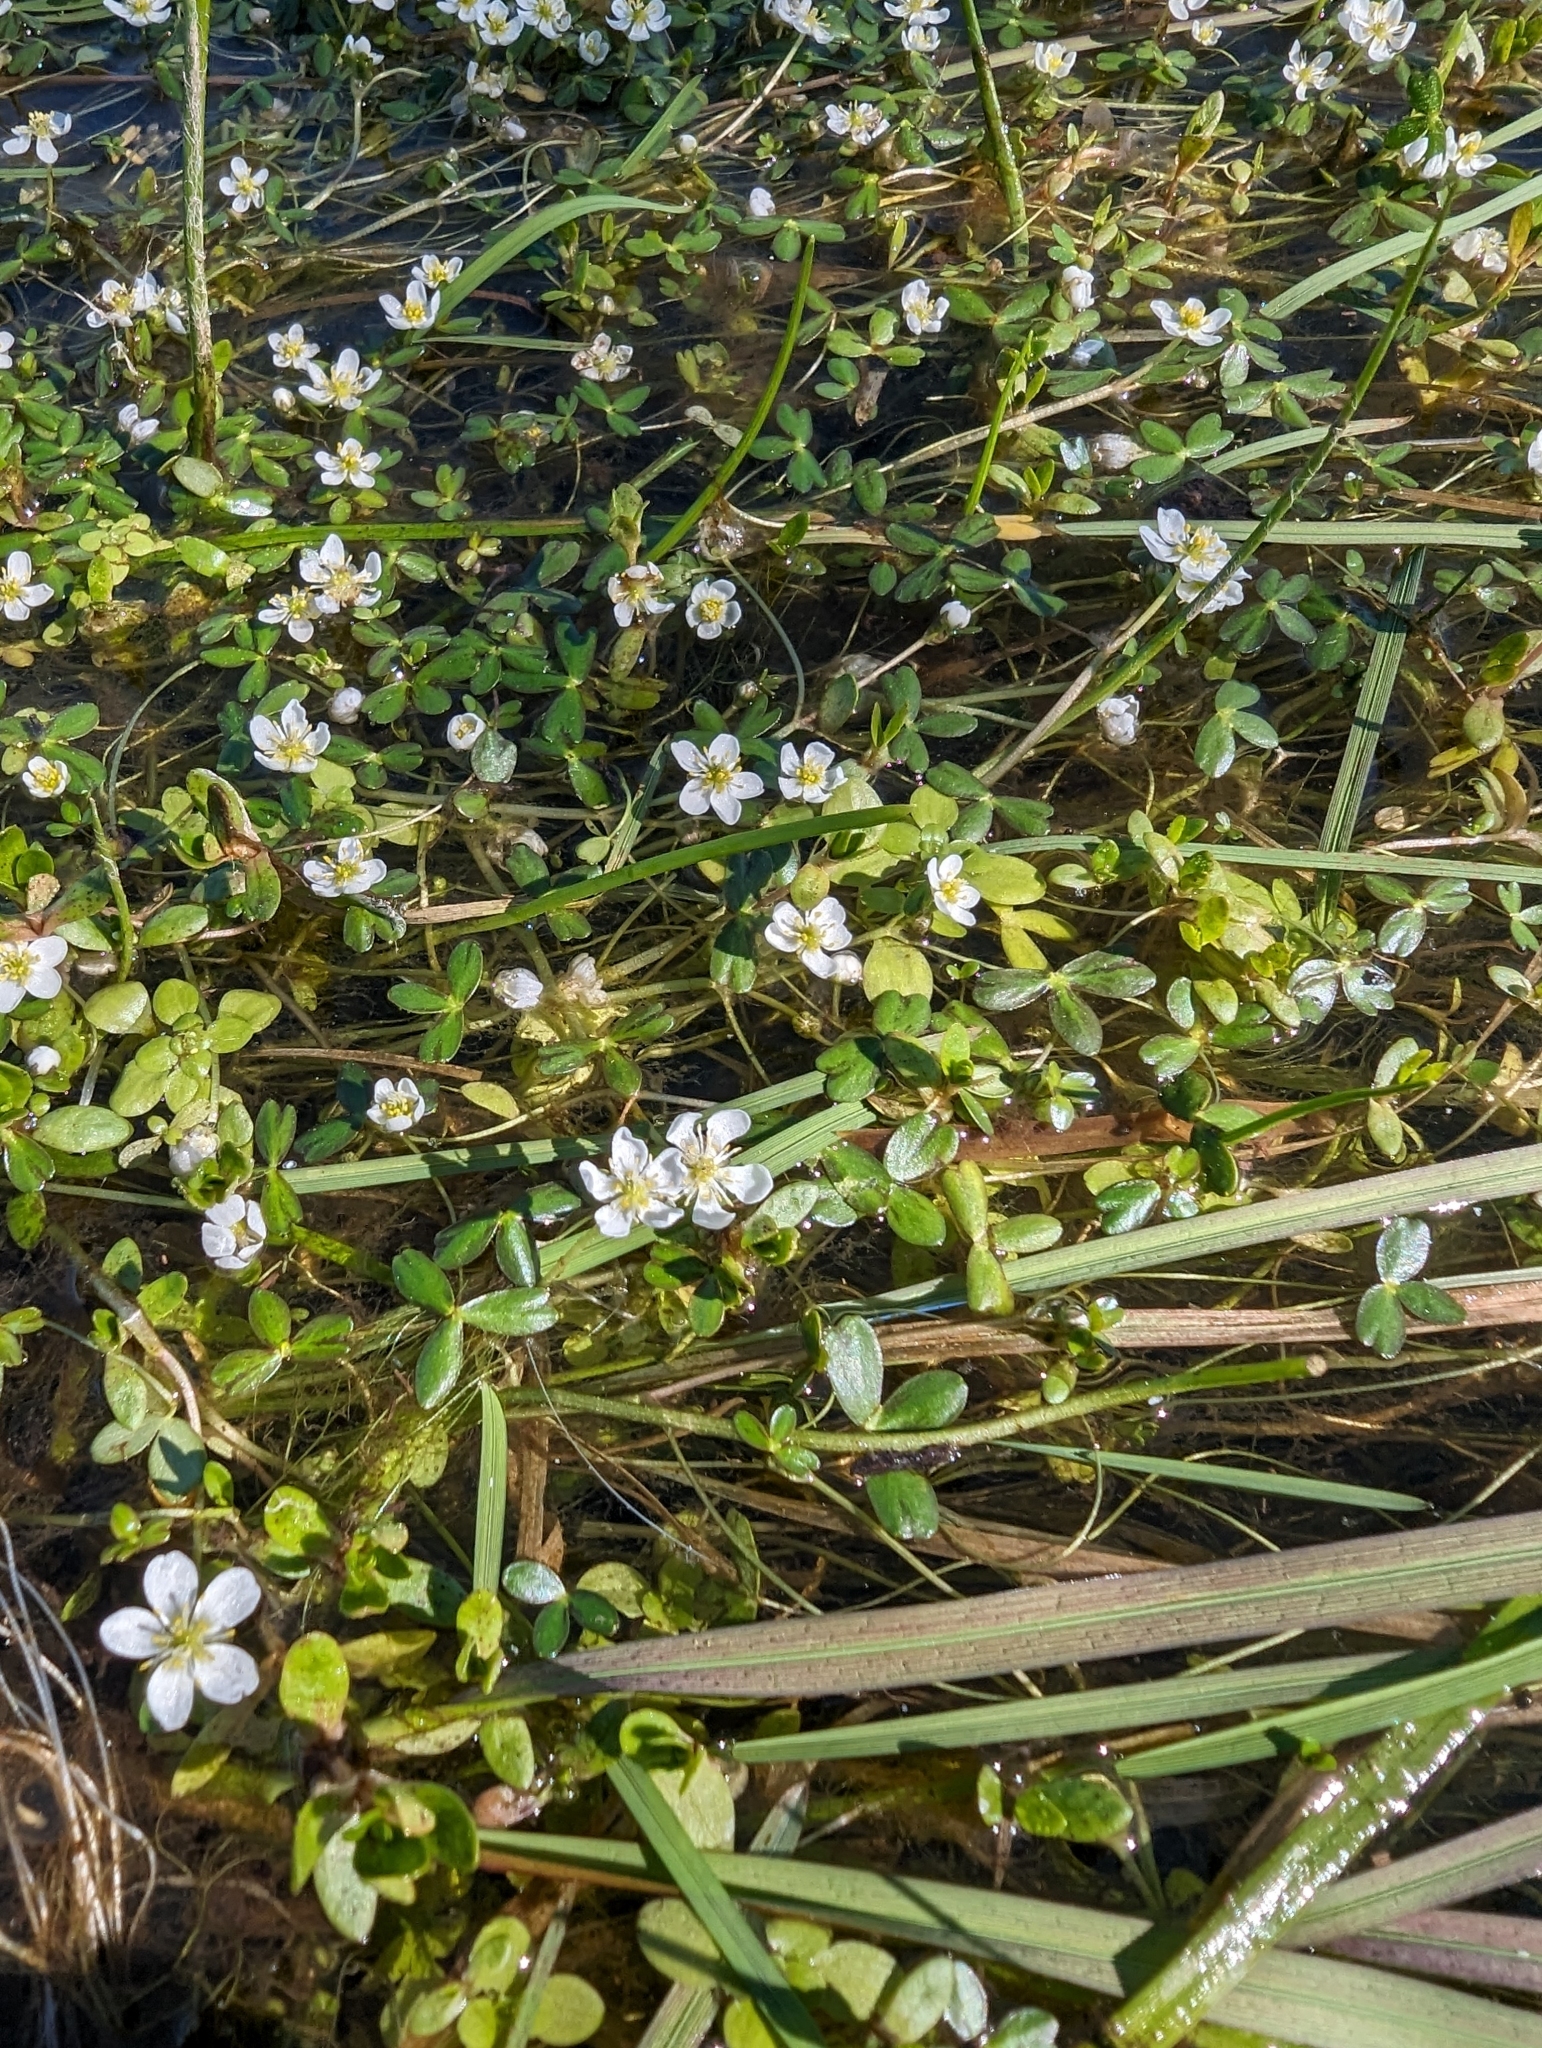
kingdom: Plantae
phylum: Tracheophyta
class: Magnoliopsida
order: Ranunculales
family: Ranunculaceae
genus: Ranunculus
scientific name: Ranunculus lobbii
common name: Lobb's buttercup
